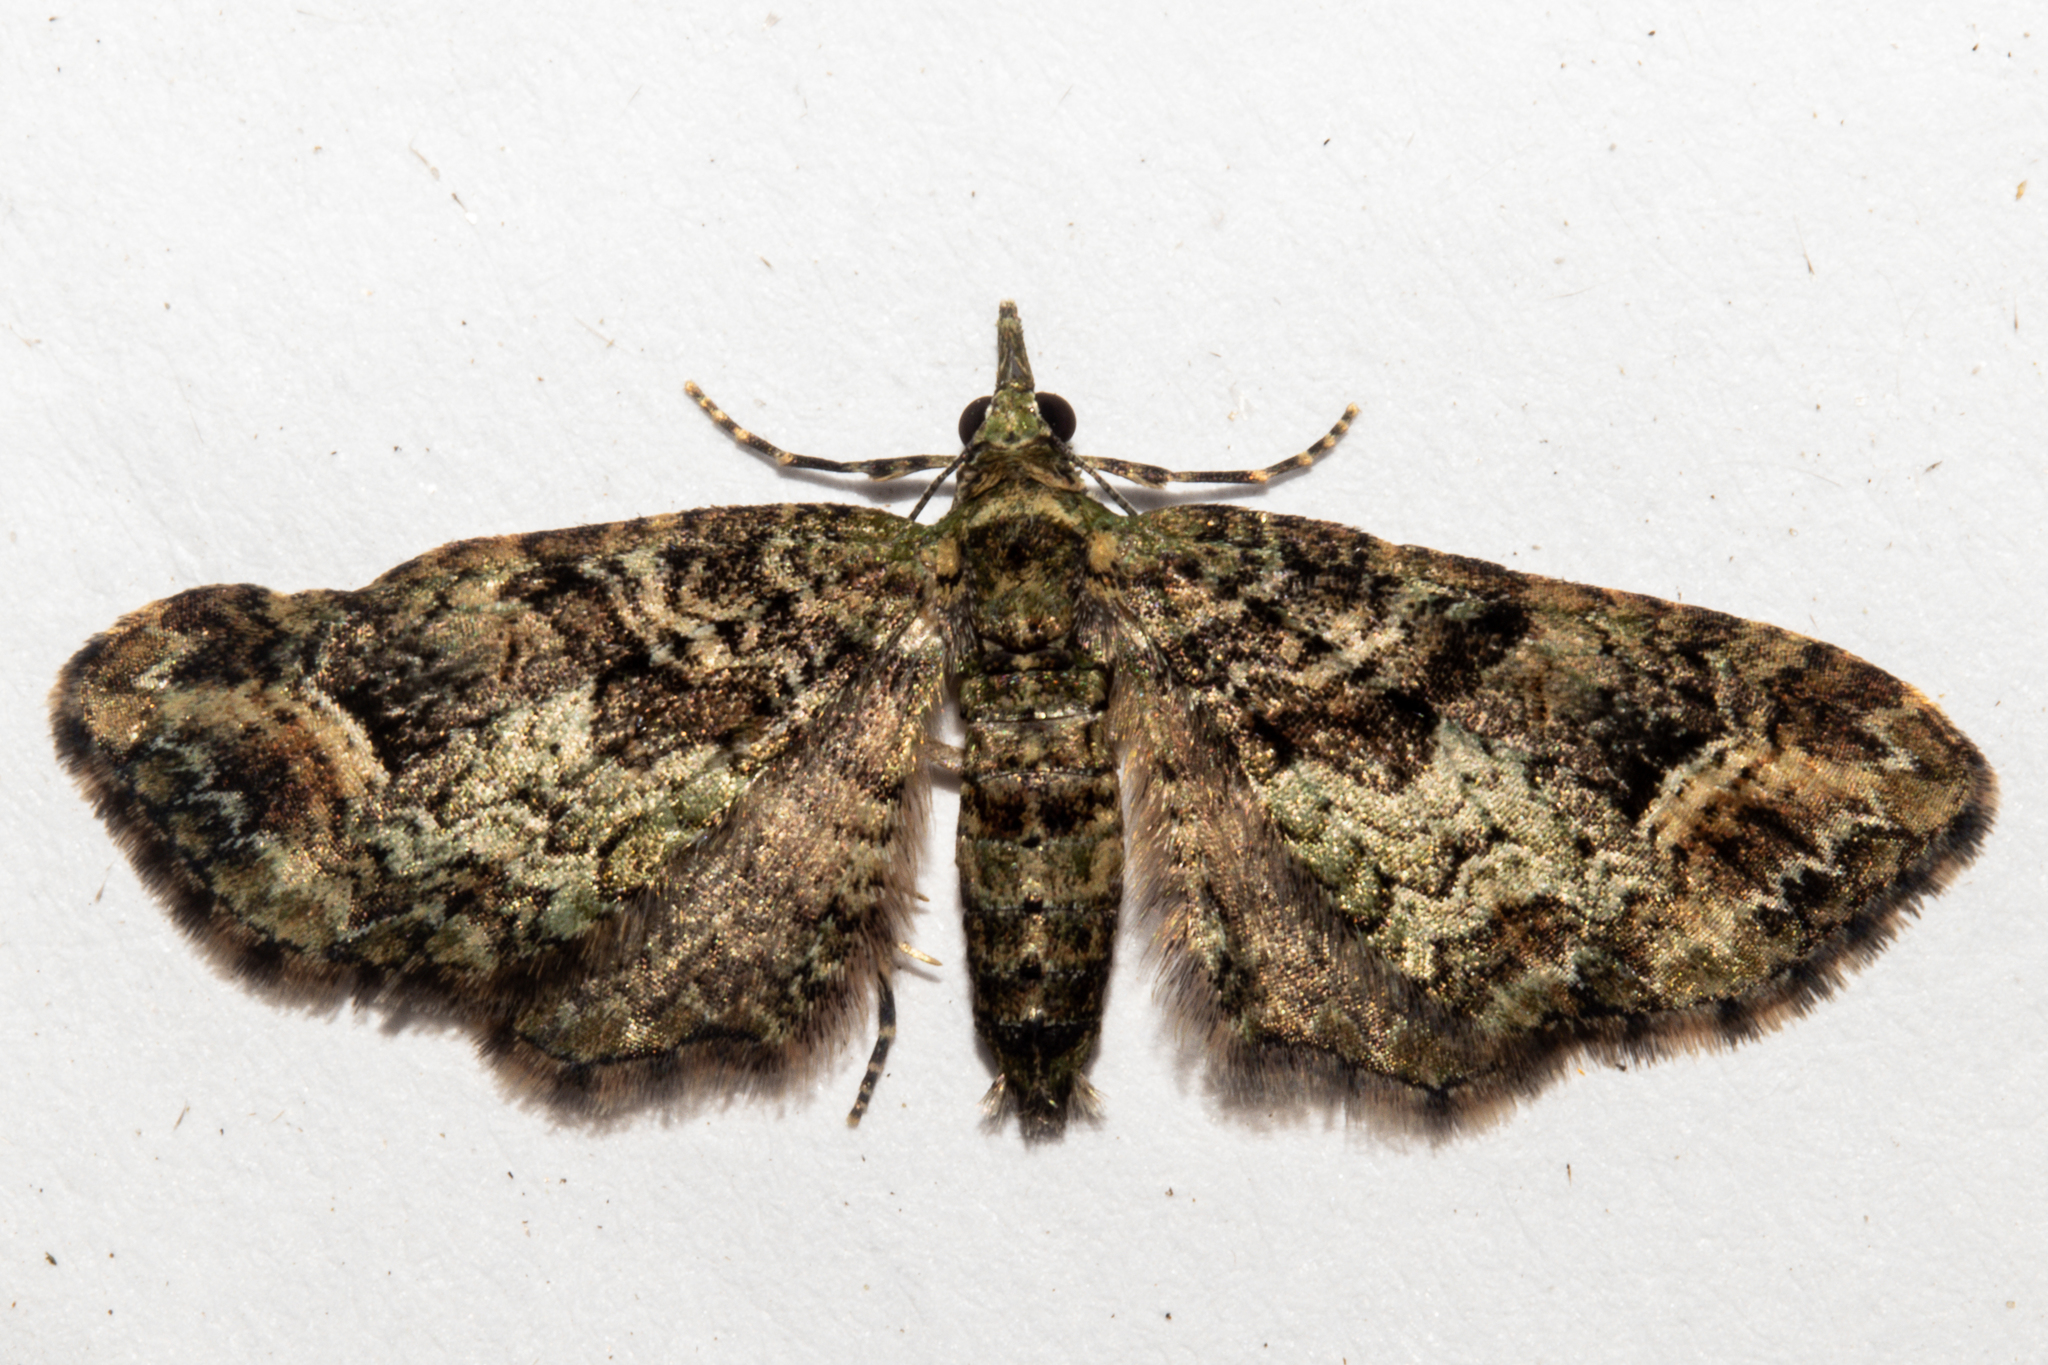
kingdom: Animalia
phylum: Arthropoda
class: Insecta
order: Lepidoptera
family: Geometridae
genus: Idaea
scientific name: Idaea mutanda
